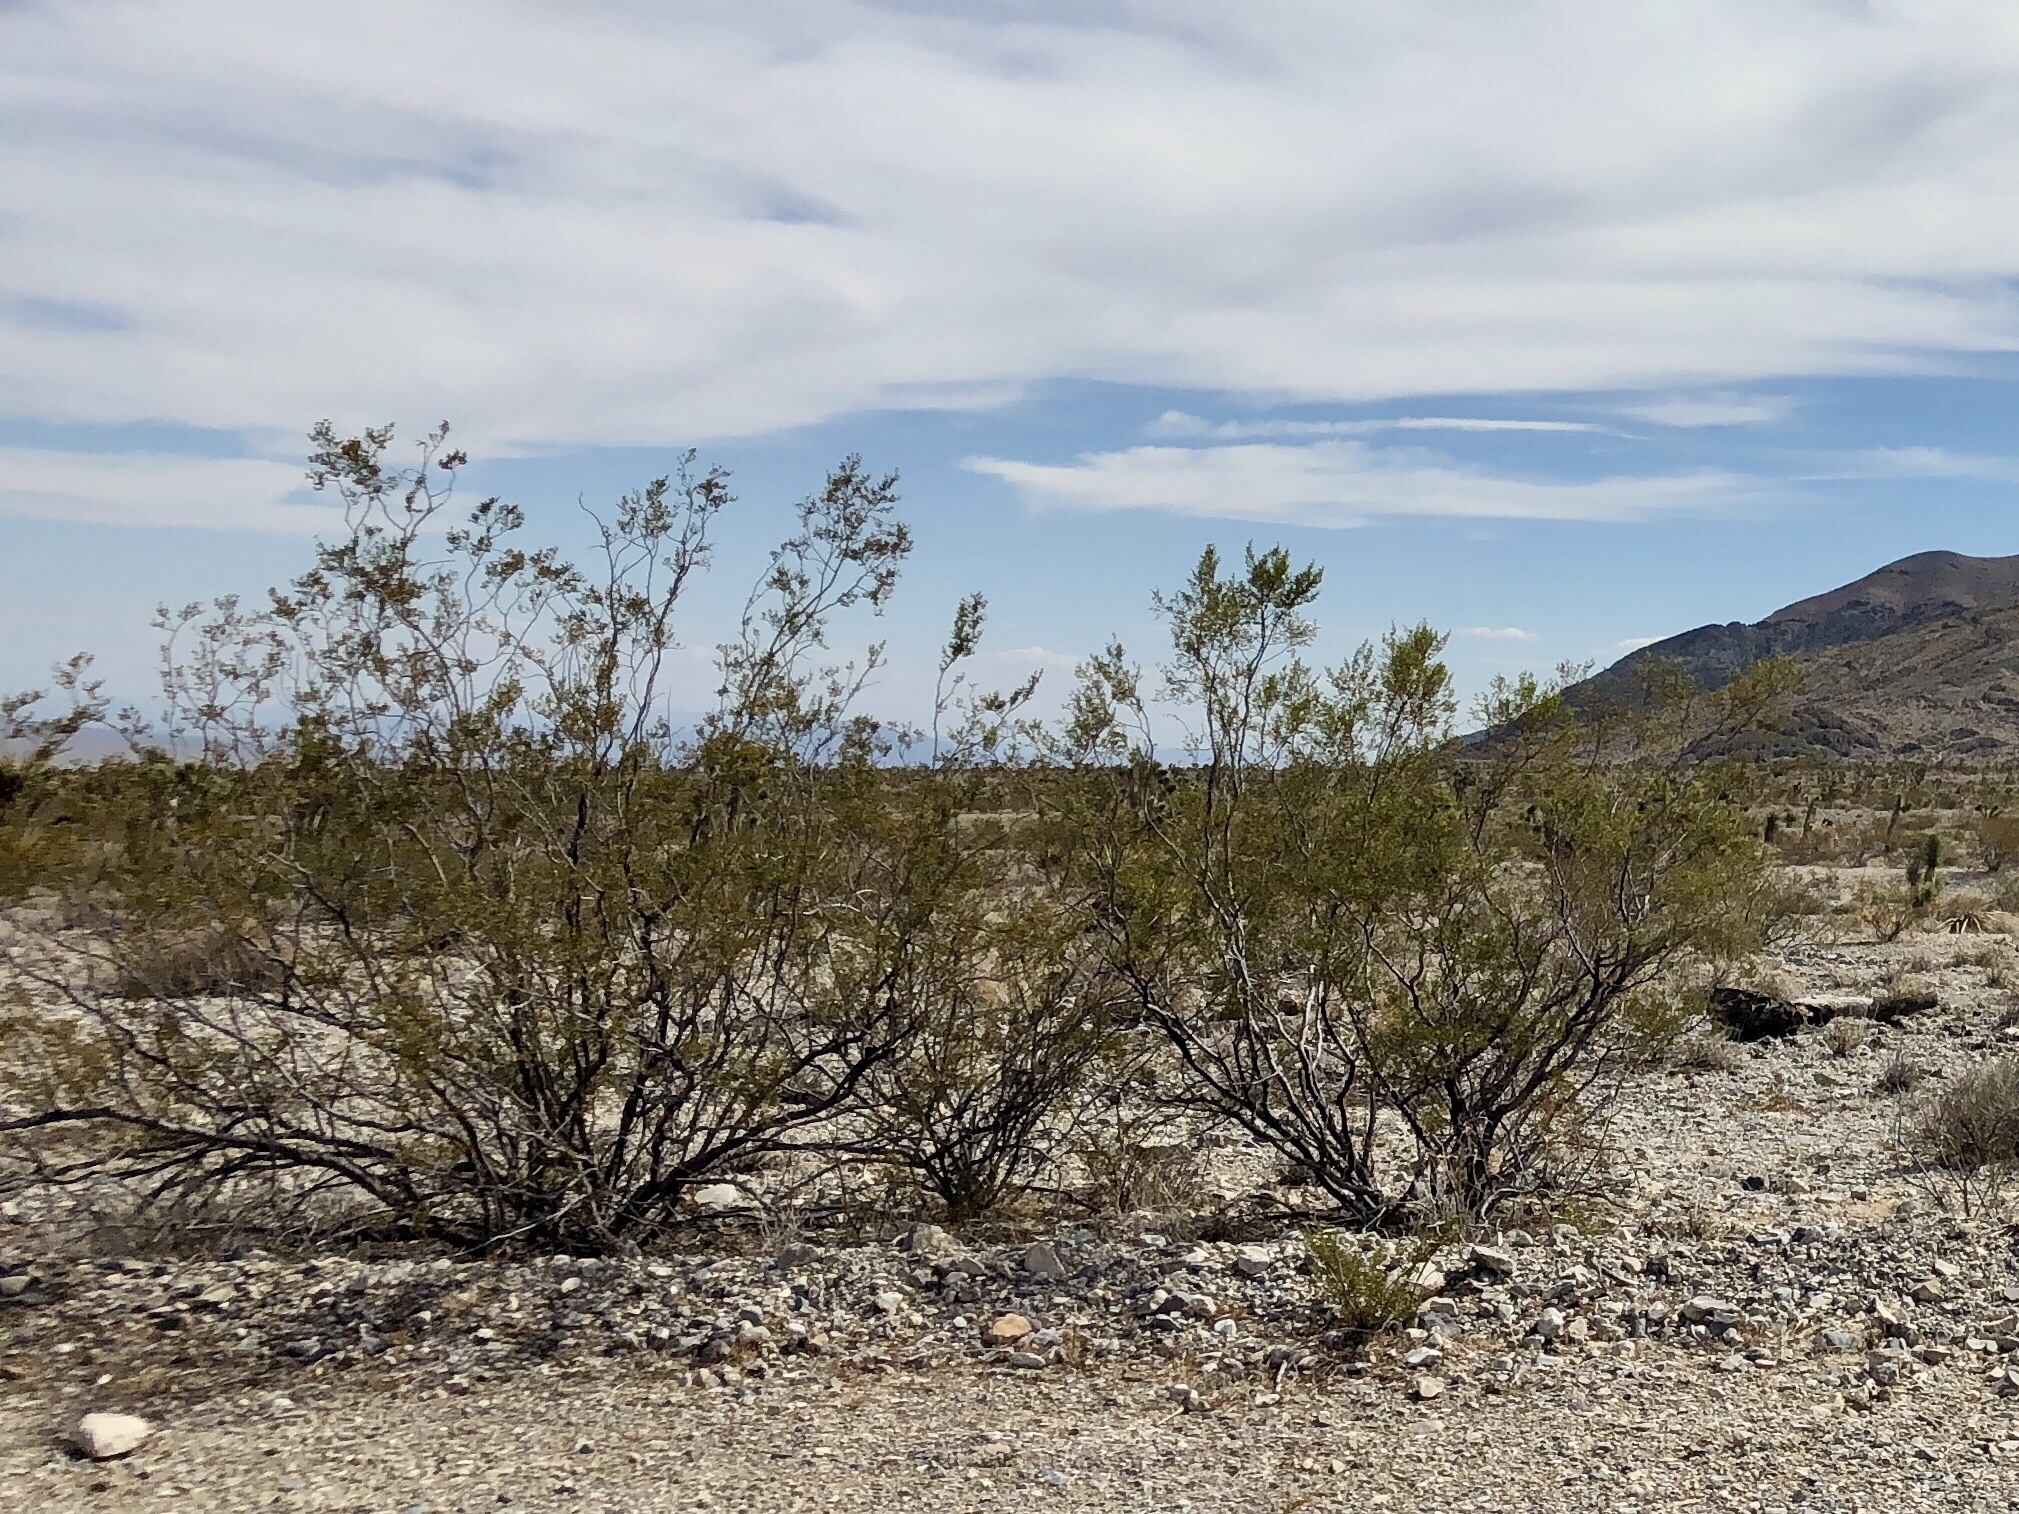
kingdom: Plantae
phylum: Tracheophyta
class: Magnoliopsida
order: Zygophyllales
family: Zygophyllaceae
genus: Larrea
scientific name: Larrea tridentata
